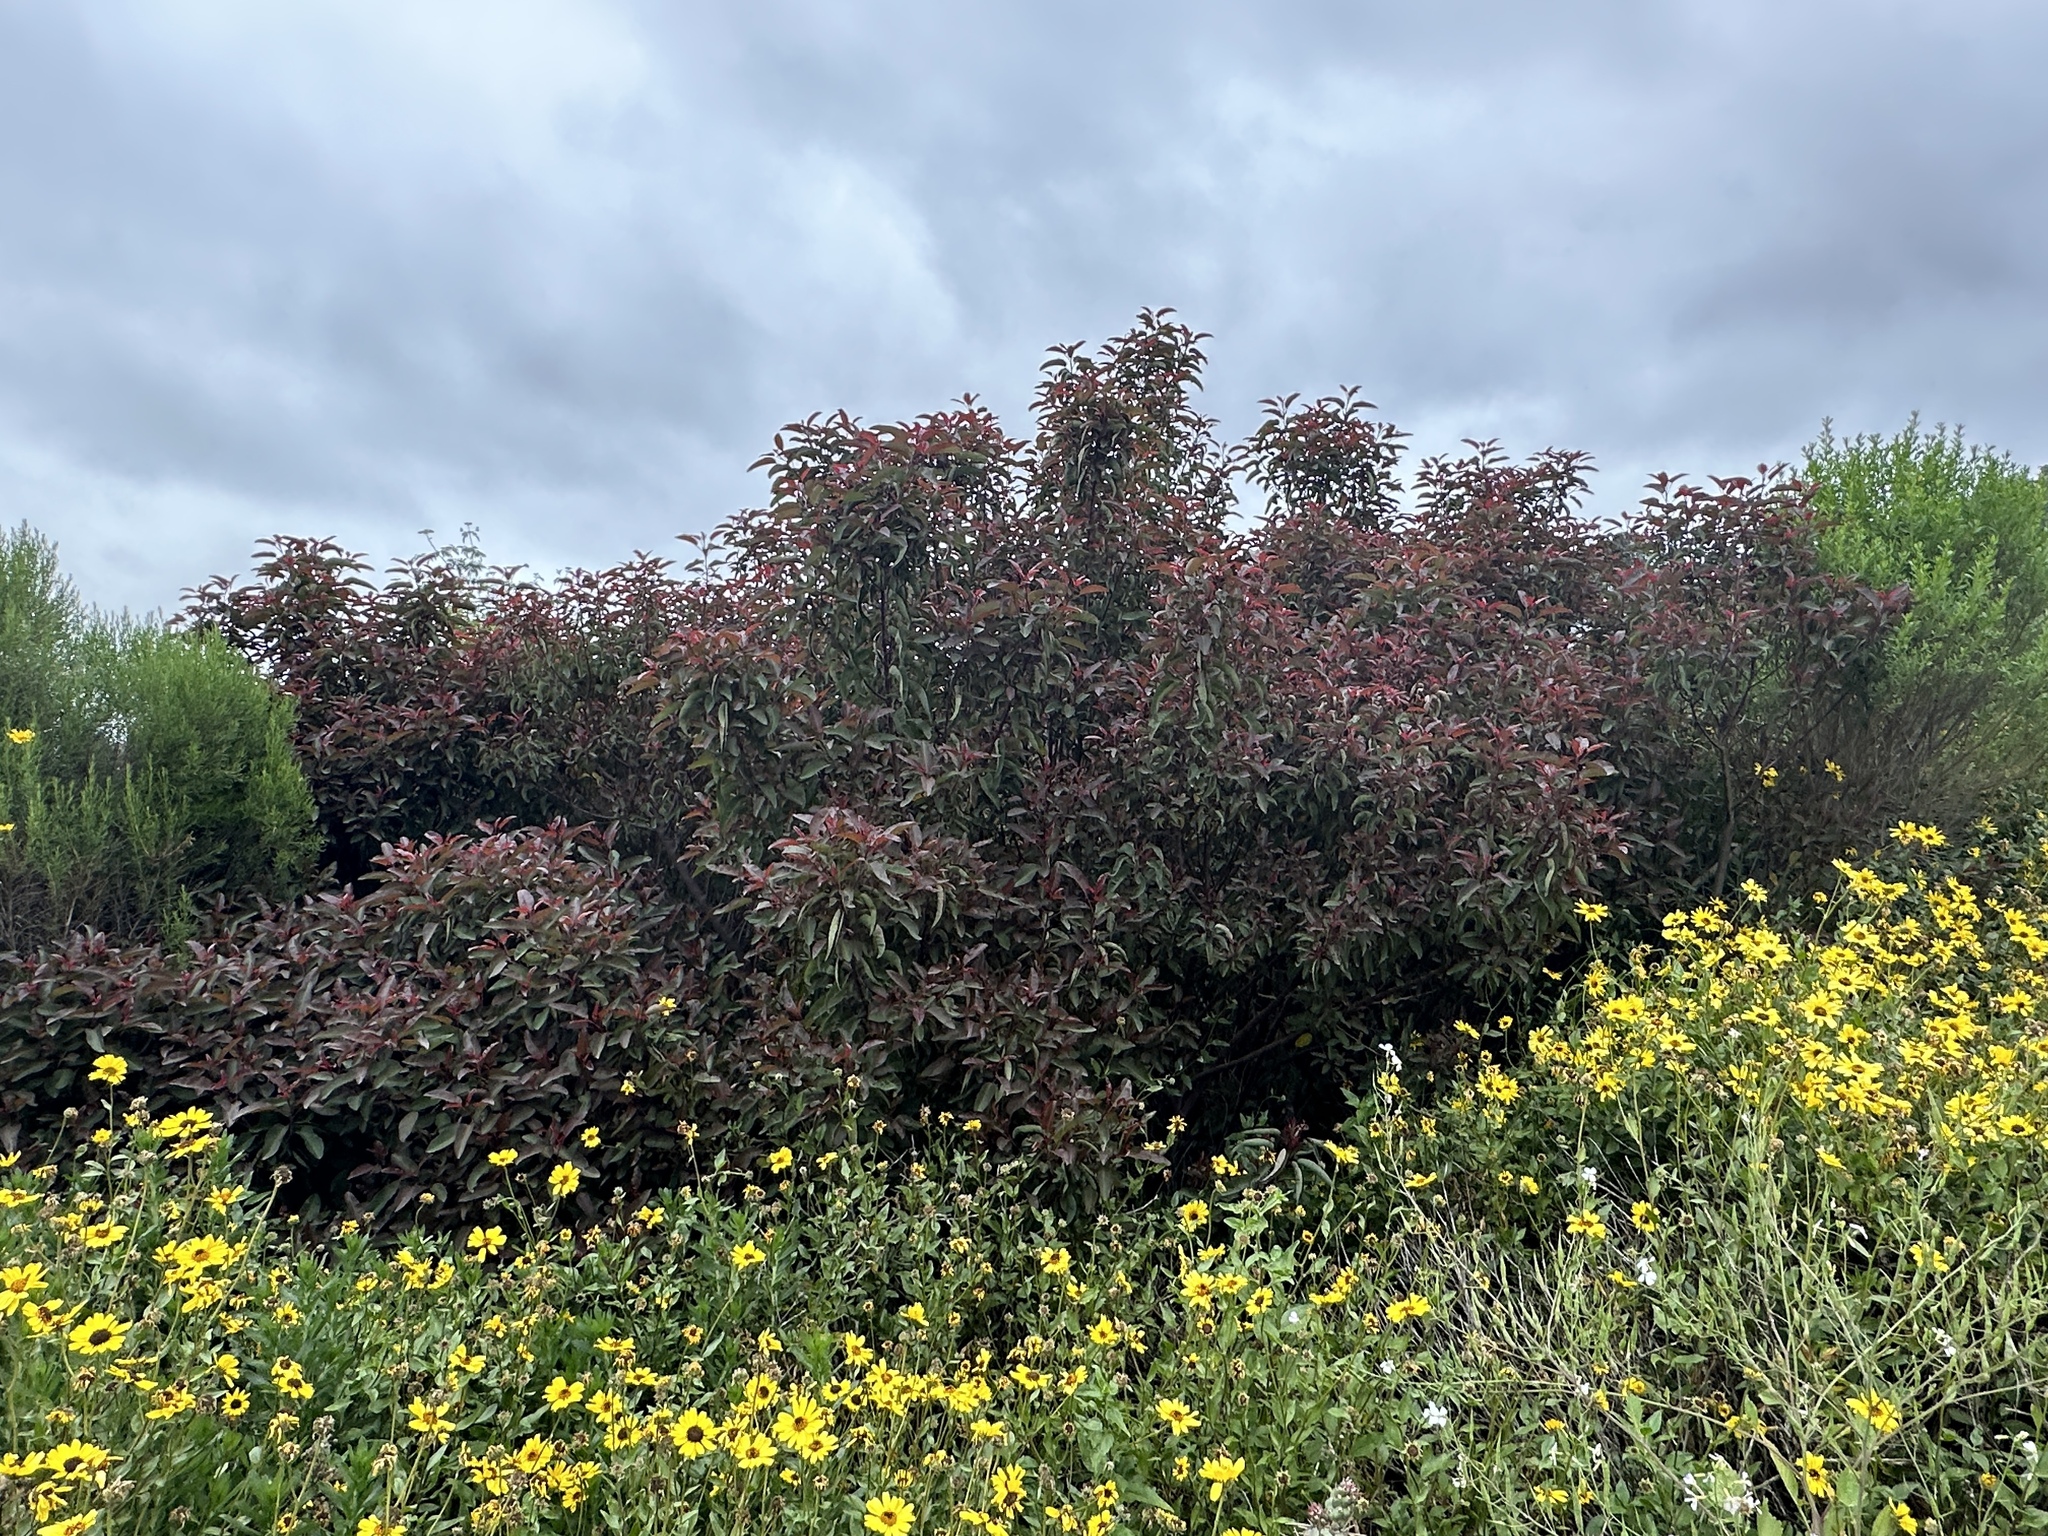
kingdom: Plantae
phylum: Tracheophyta
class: Magnoliopsida
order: Sapindales
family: Anacardiaceae
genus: Malosma
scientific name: Malosma laurina
